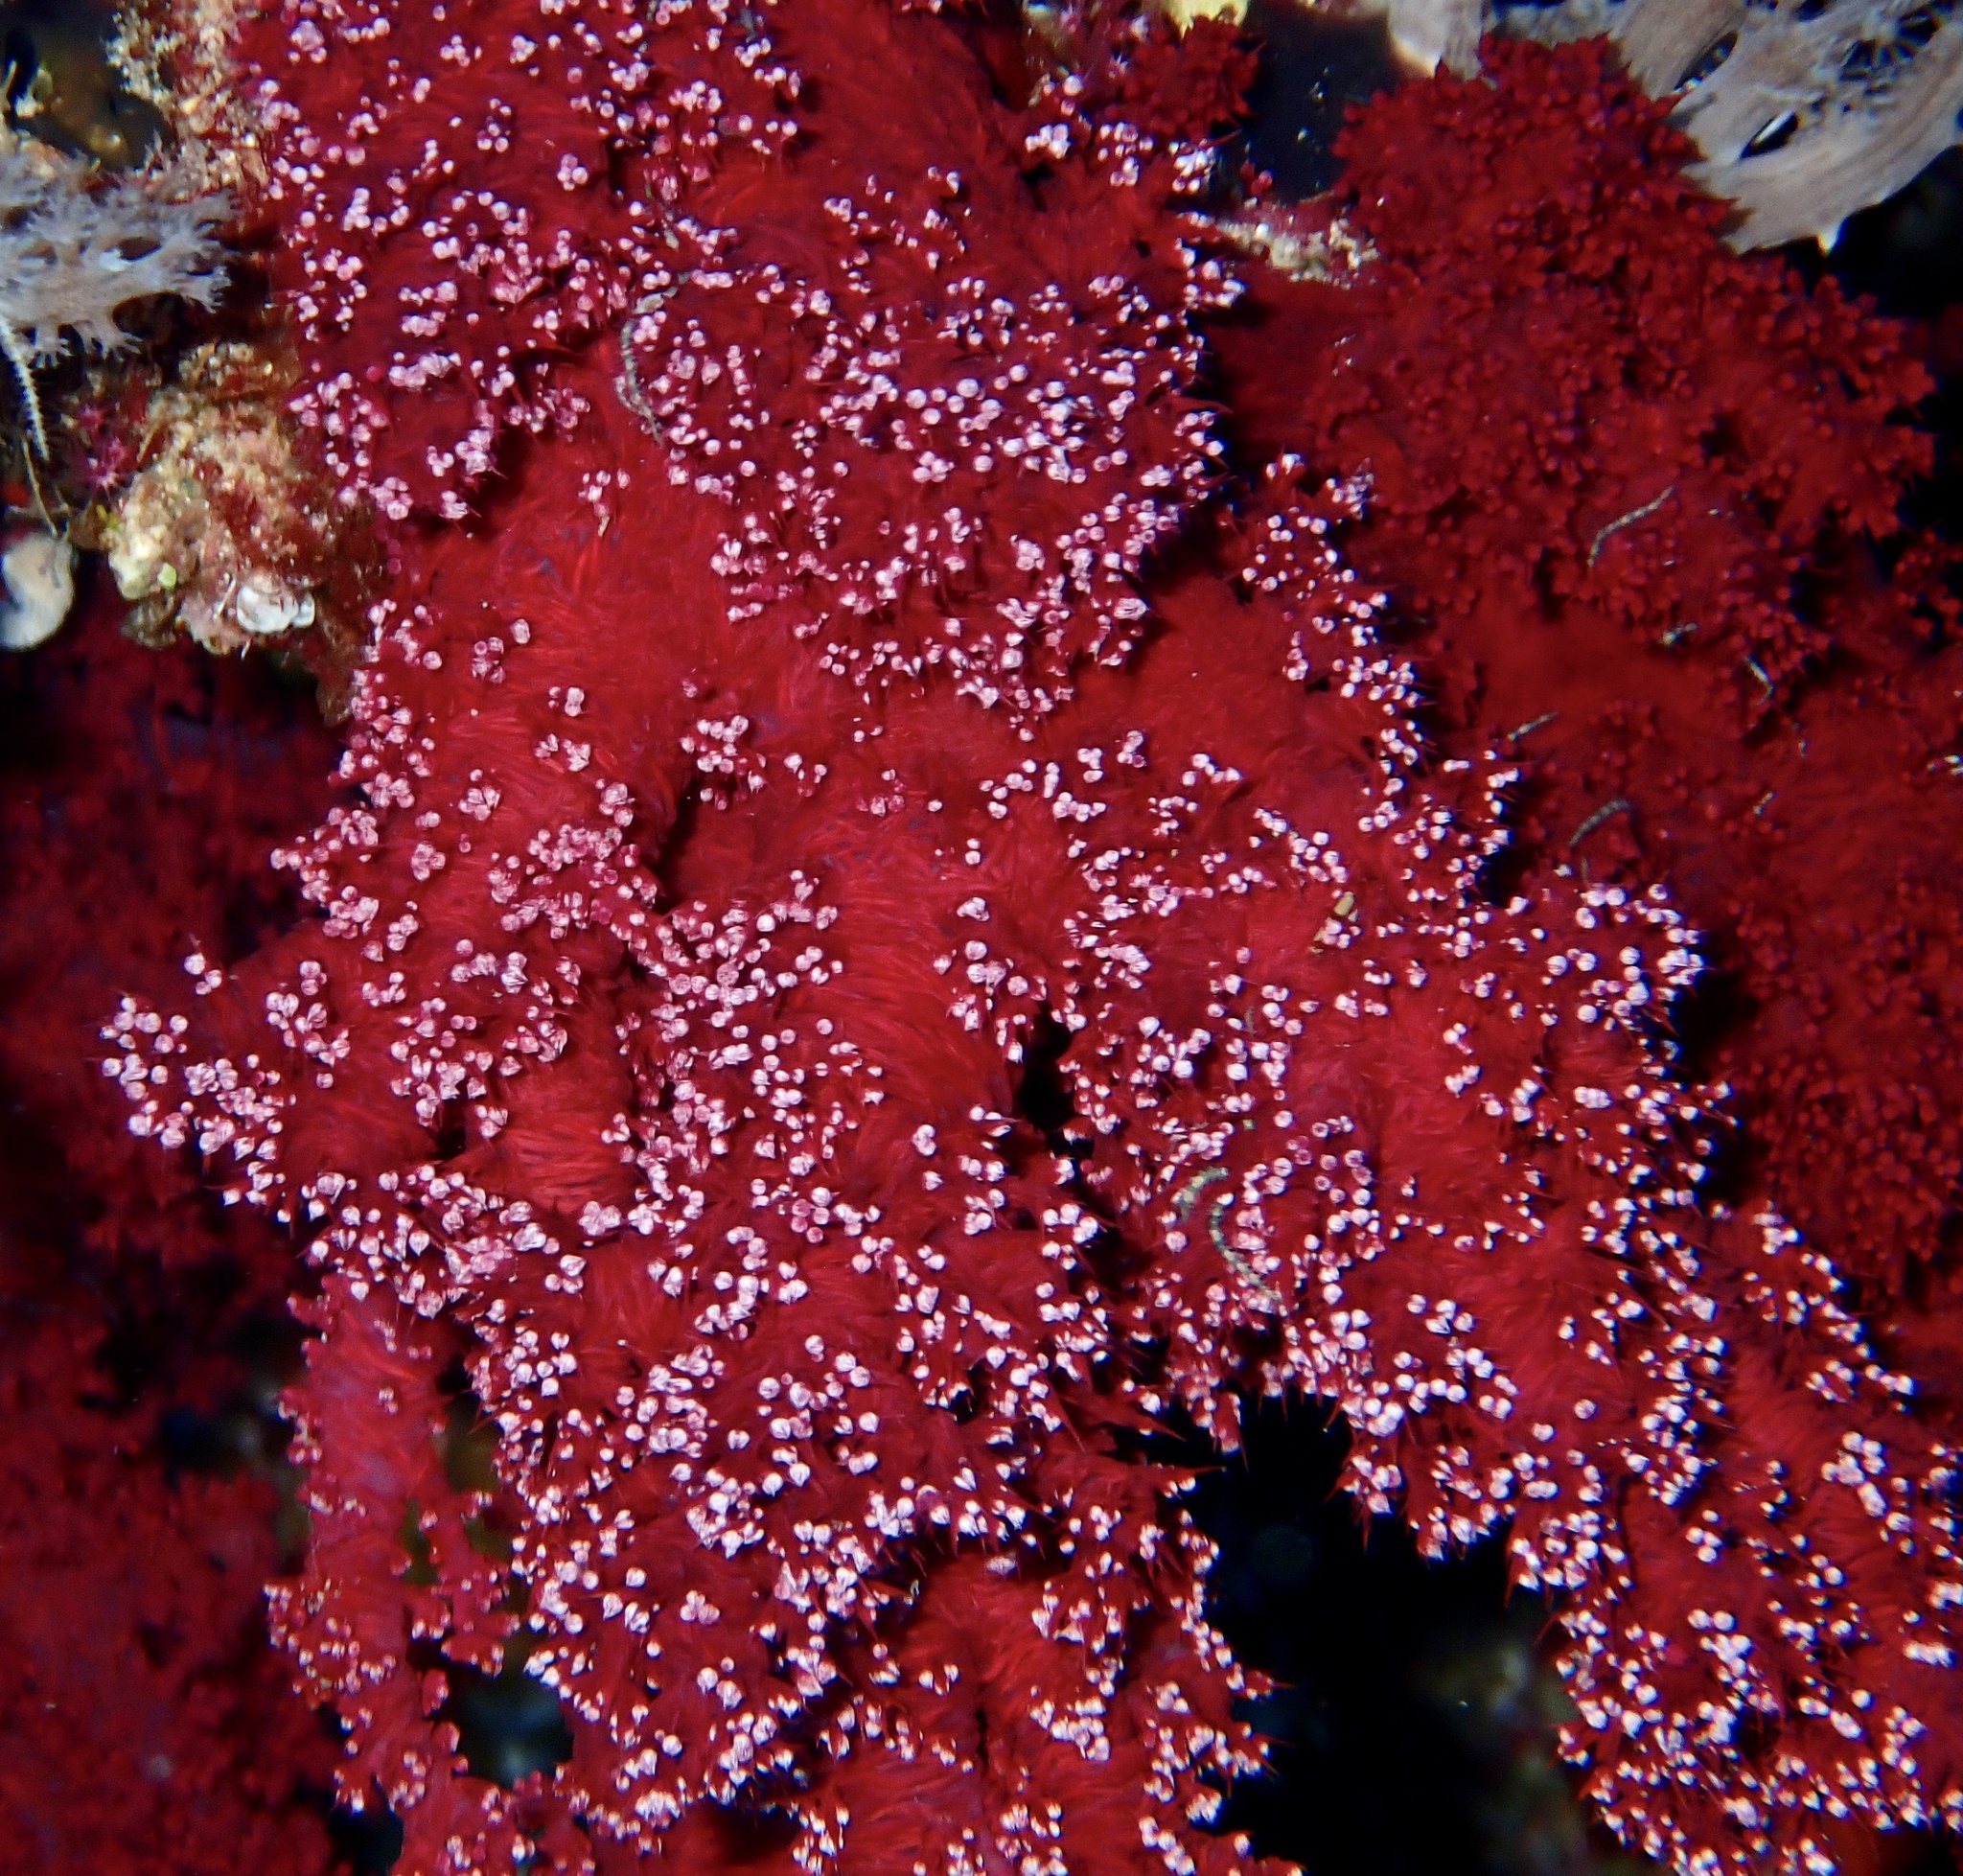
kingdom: Animalia
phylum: Cnidaria
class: Anthozoa
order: Malacalcyonacea
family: Nephtheidae
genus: Dendronephthya
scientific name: Dendronephthya hemprichi
